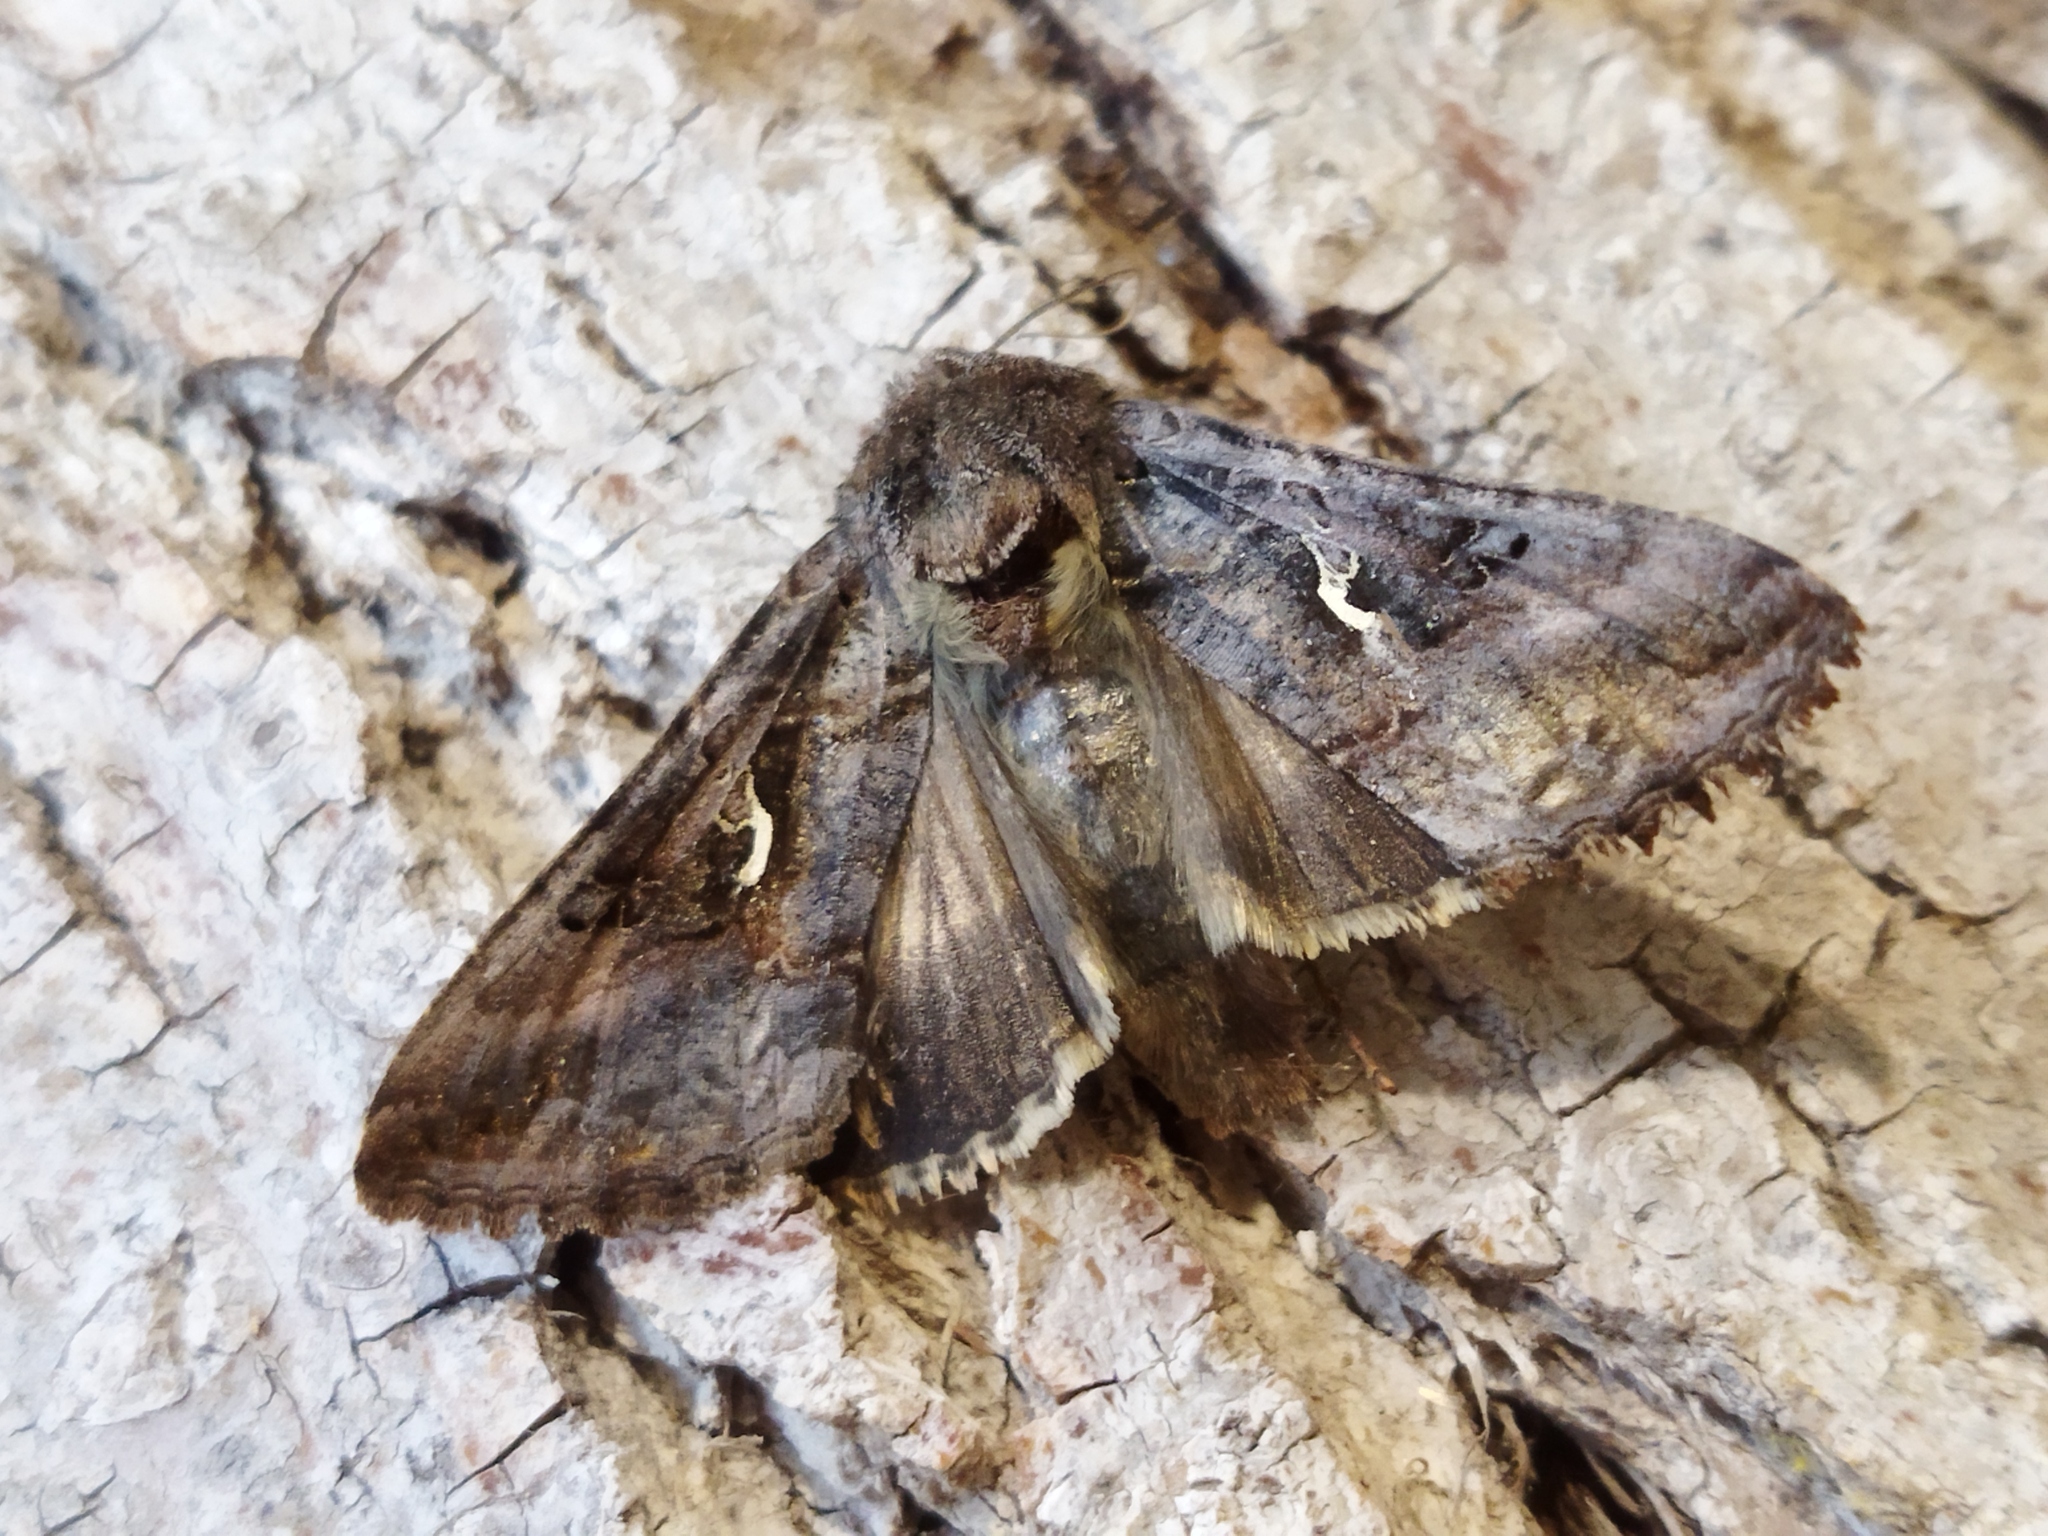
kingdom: Animalia
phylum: Arthropoda
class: Insecta
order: Lepidoptera
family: Noctuidae
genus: Autographa
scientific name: Autographa gamma
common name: Silver y
